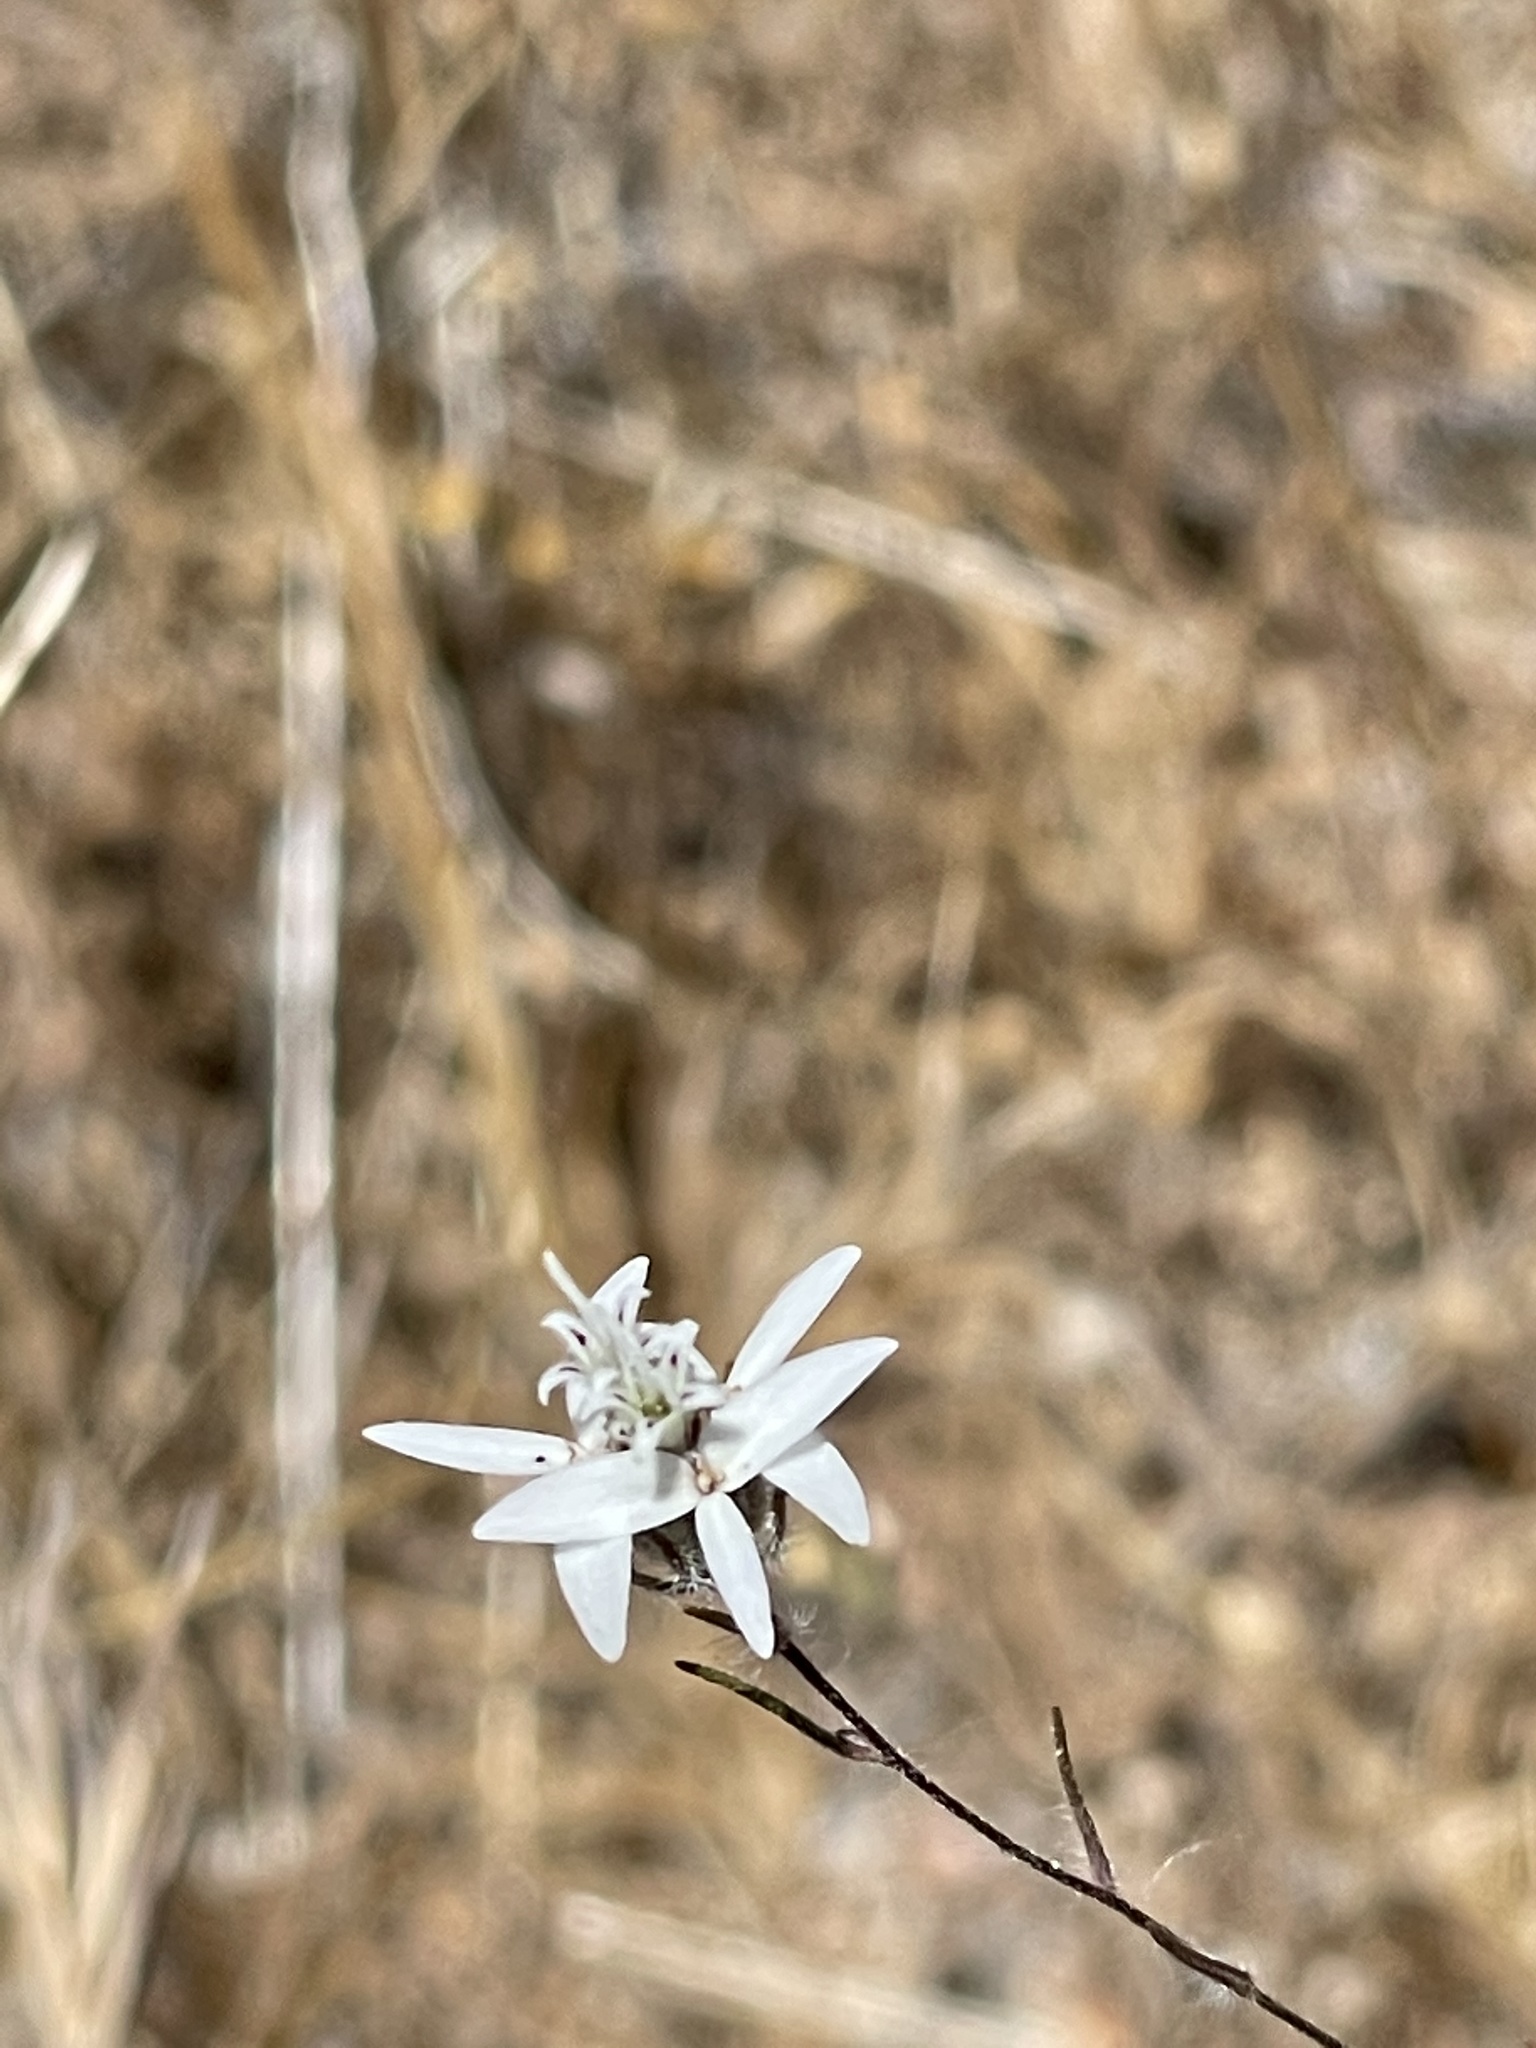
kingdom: Plantae
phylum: Tracheophyta
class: Magnoliopsida
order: Asterales
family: Asteraceae
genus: Osmadenia
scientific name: Osmadenia tenella
